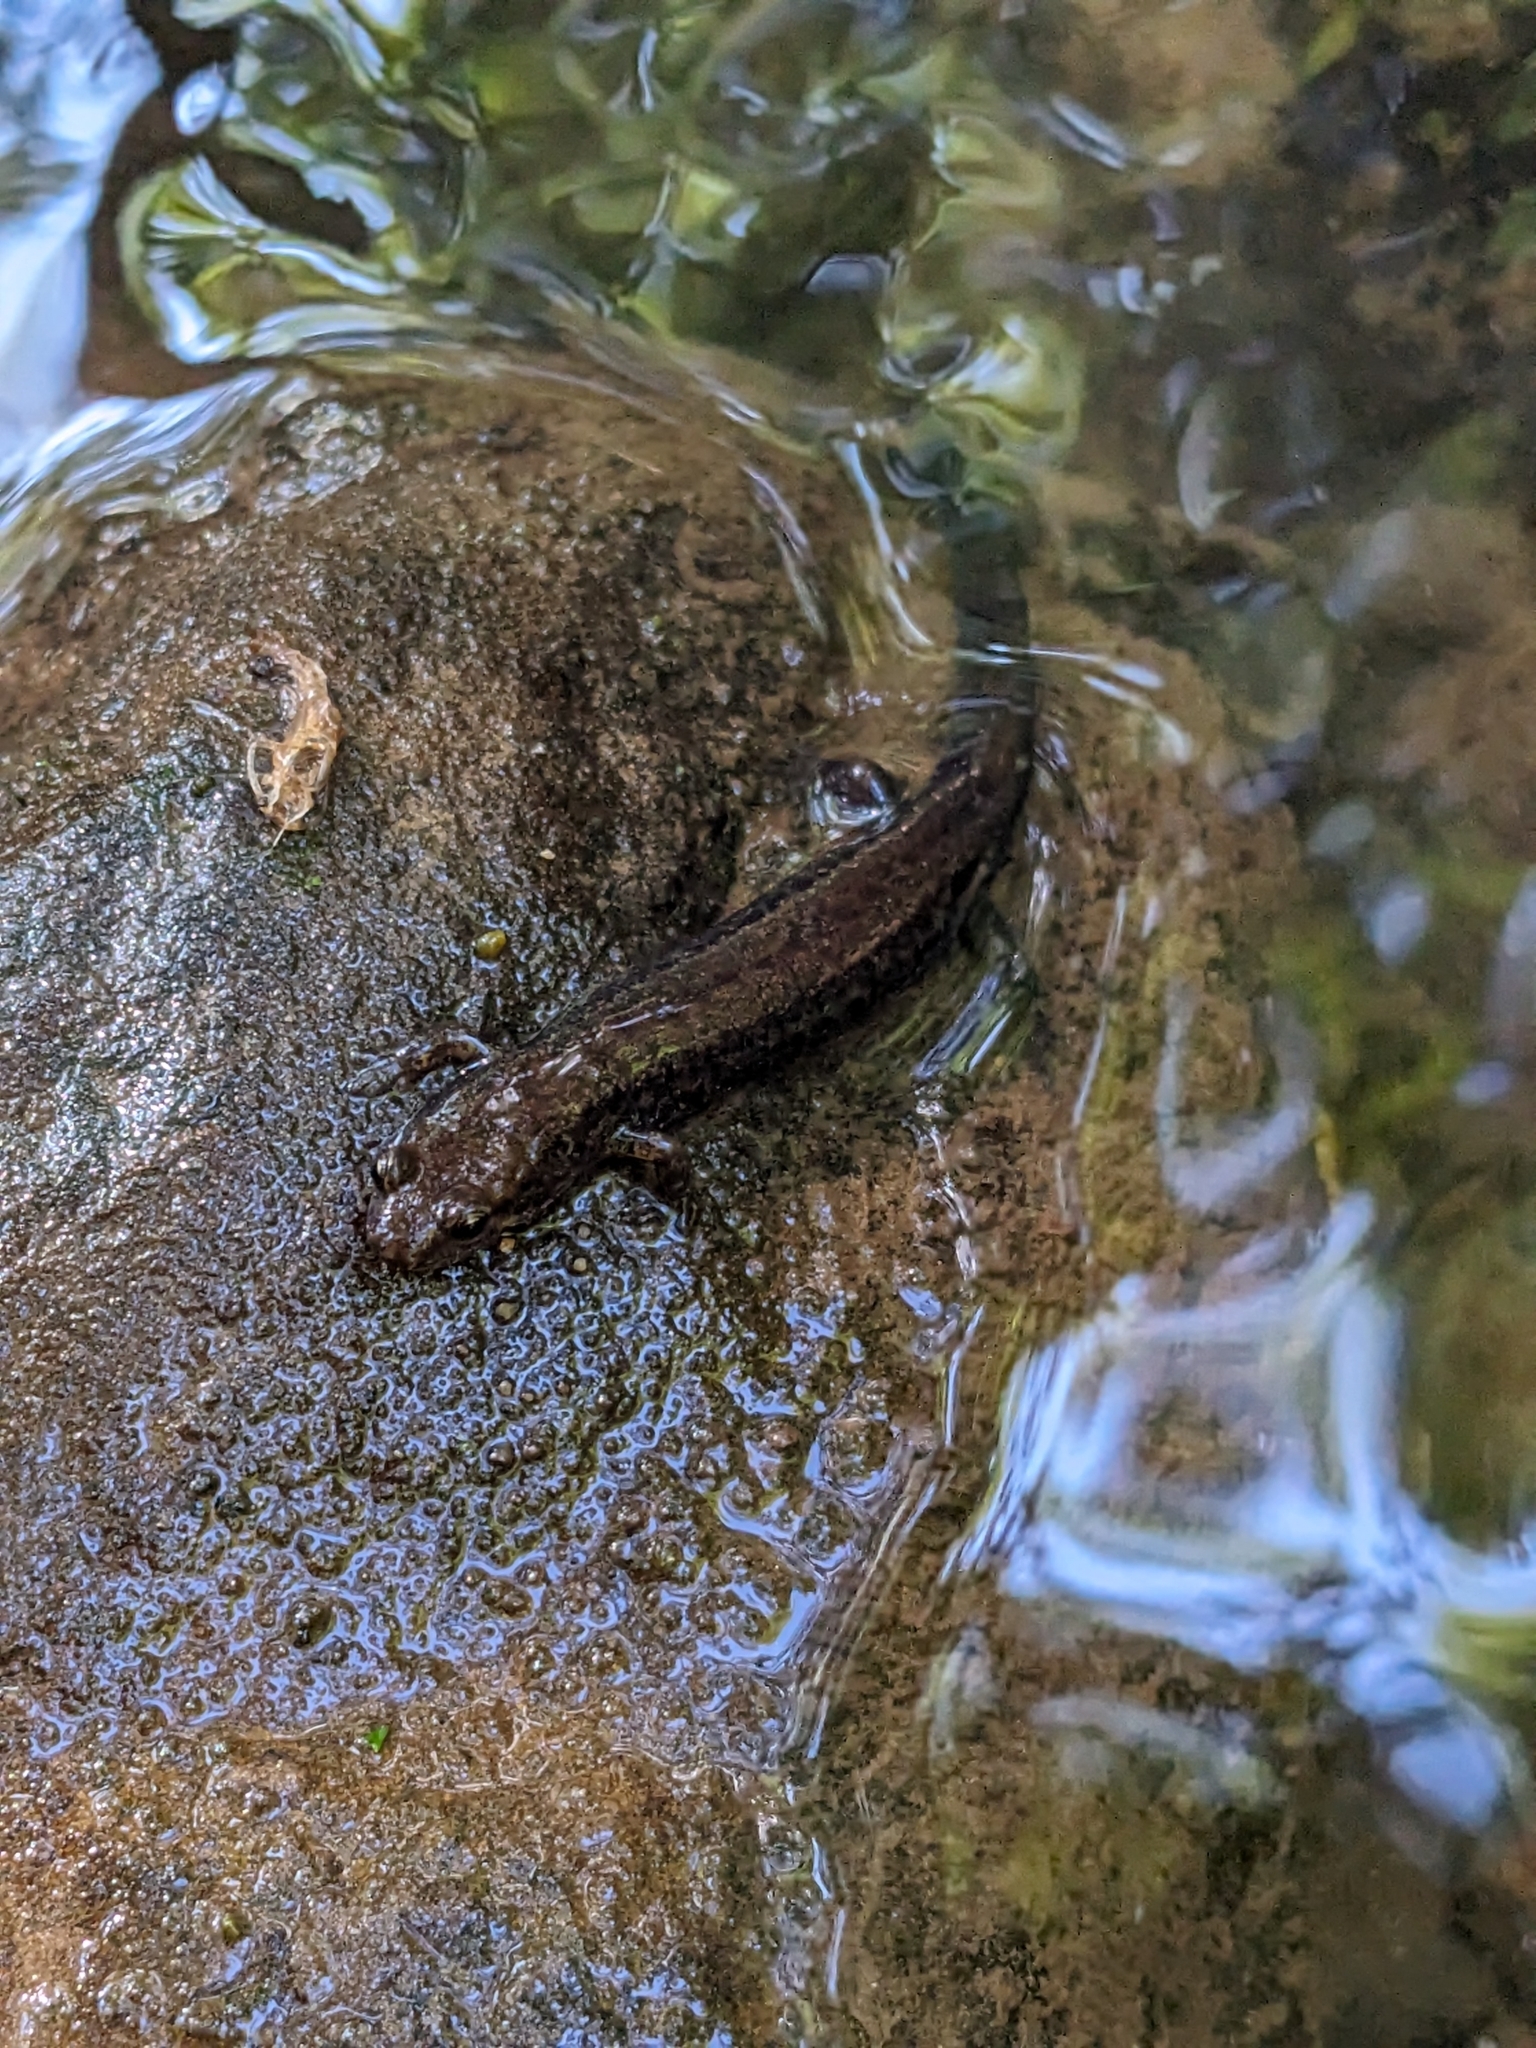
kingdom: Animalia
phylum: Chordata
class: Amphibia
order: Caudata
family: Plethodontidae
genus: Desmognathus
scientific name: Desmognathus ochrophaeus
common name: Allegheny mountain dusky salamander
